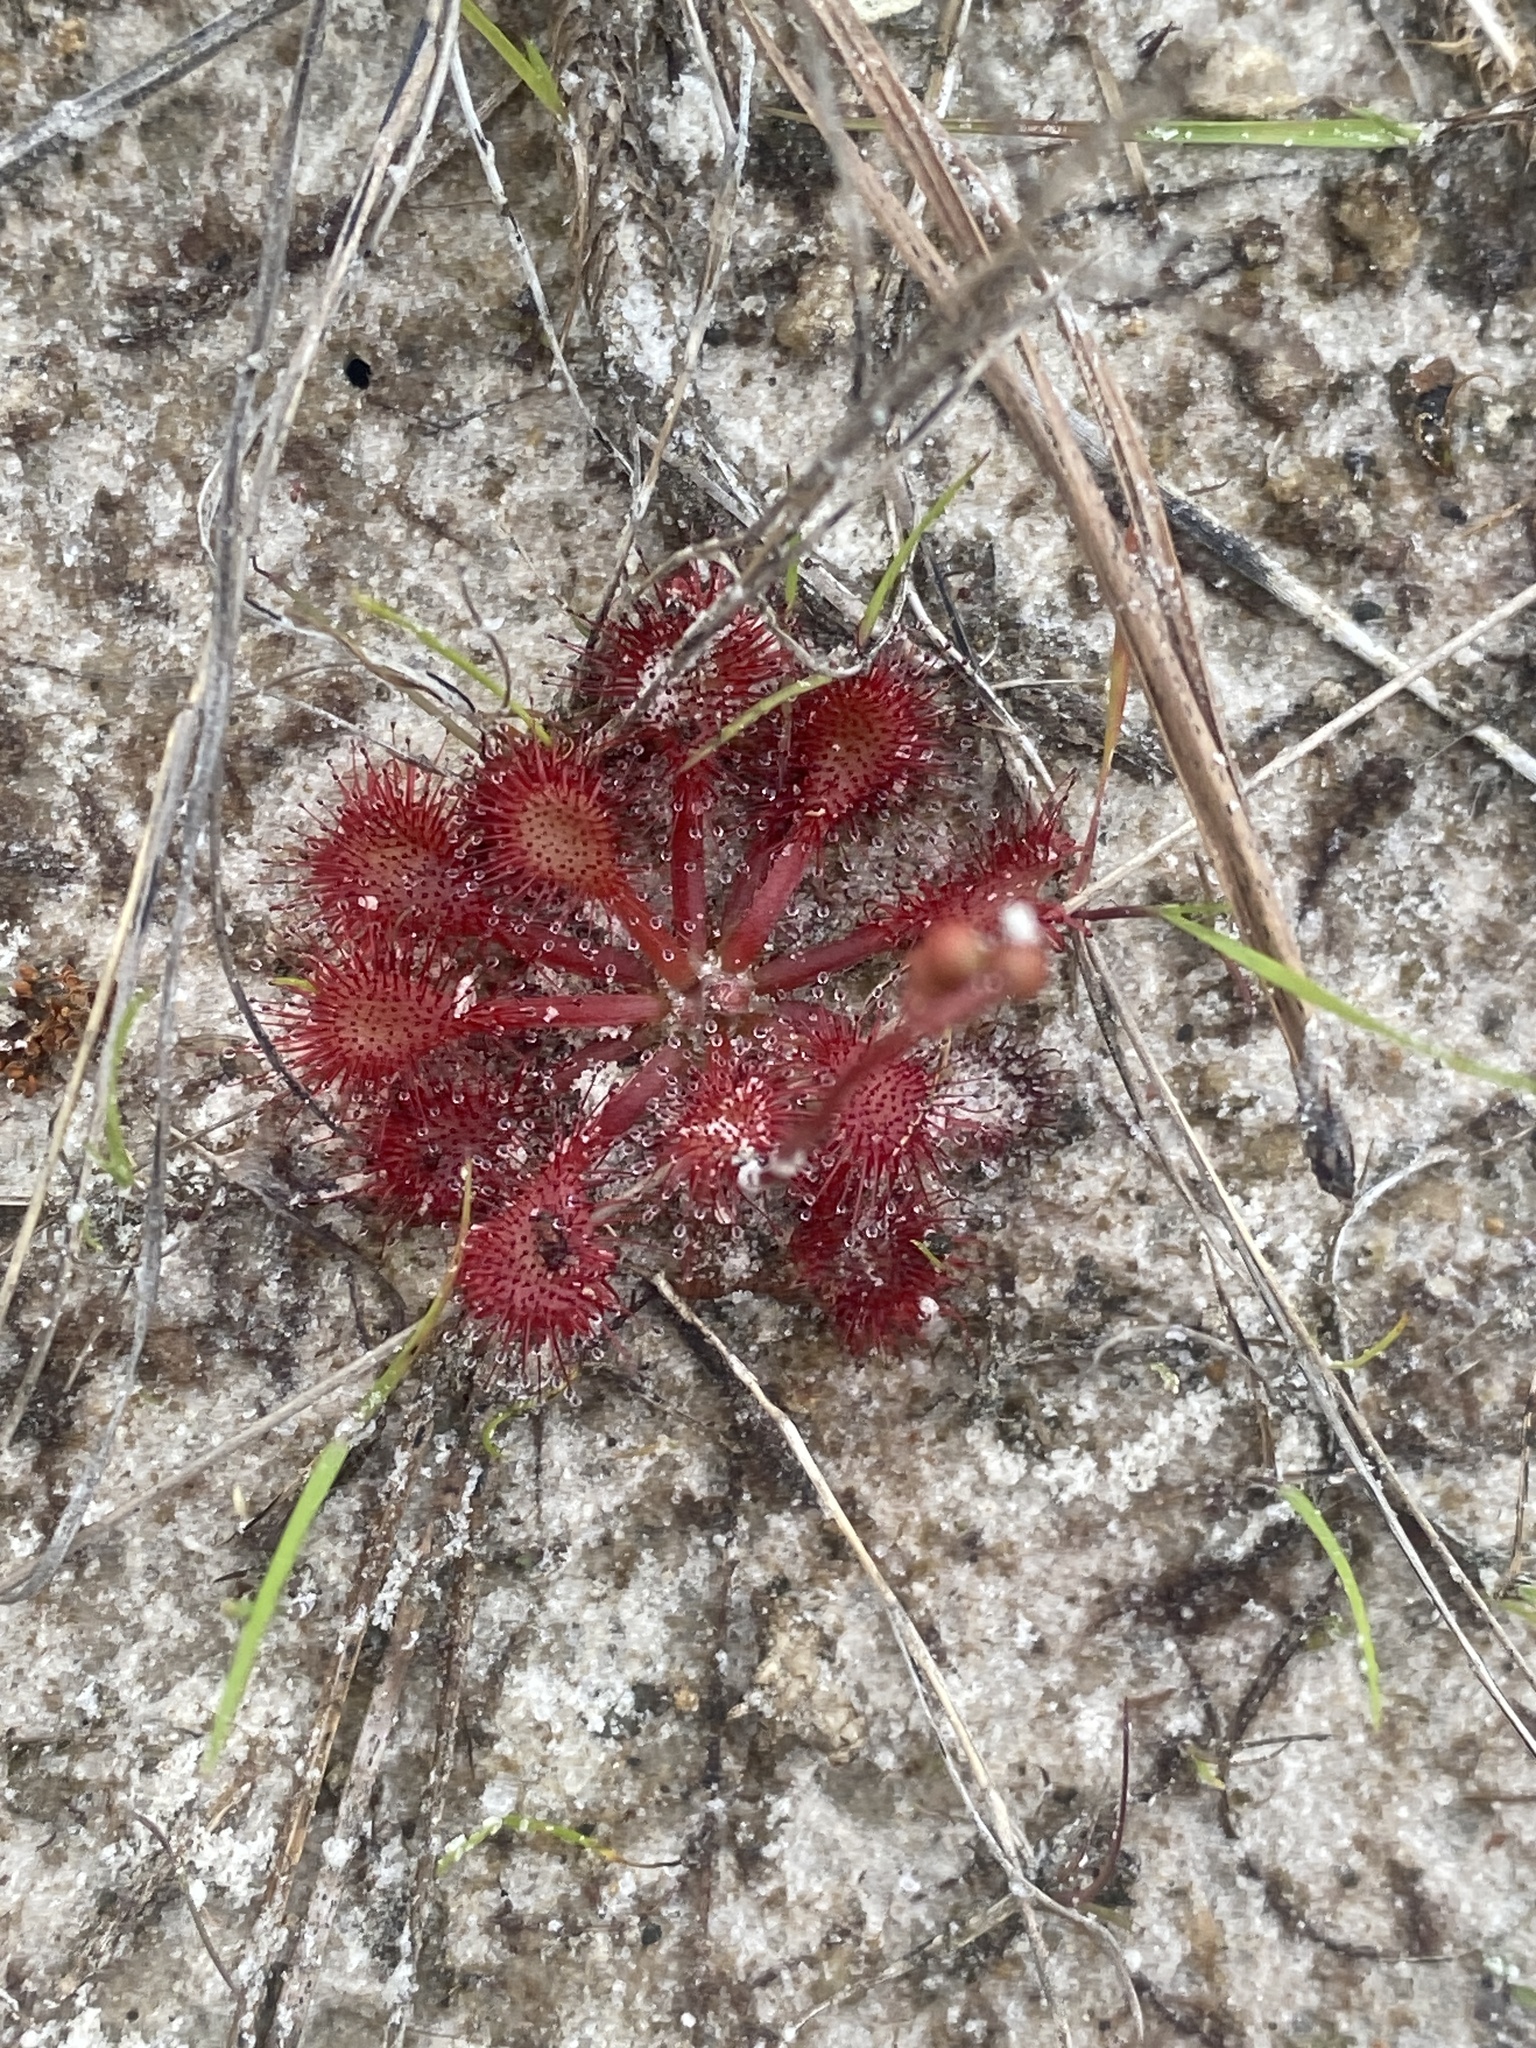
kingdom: Plantae
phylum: Tracheophyta
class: Magnoliopsida
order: Caryophyllales
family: Droseraceae
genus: Drosera
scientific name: Drosera capillaris
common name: Pink sundew
